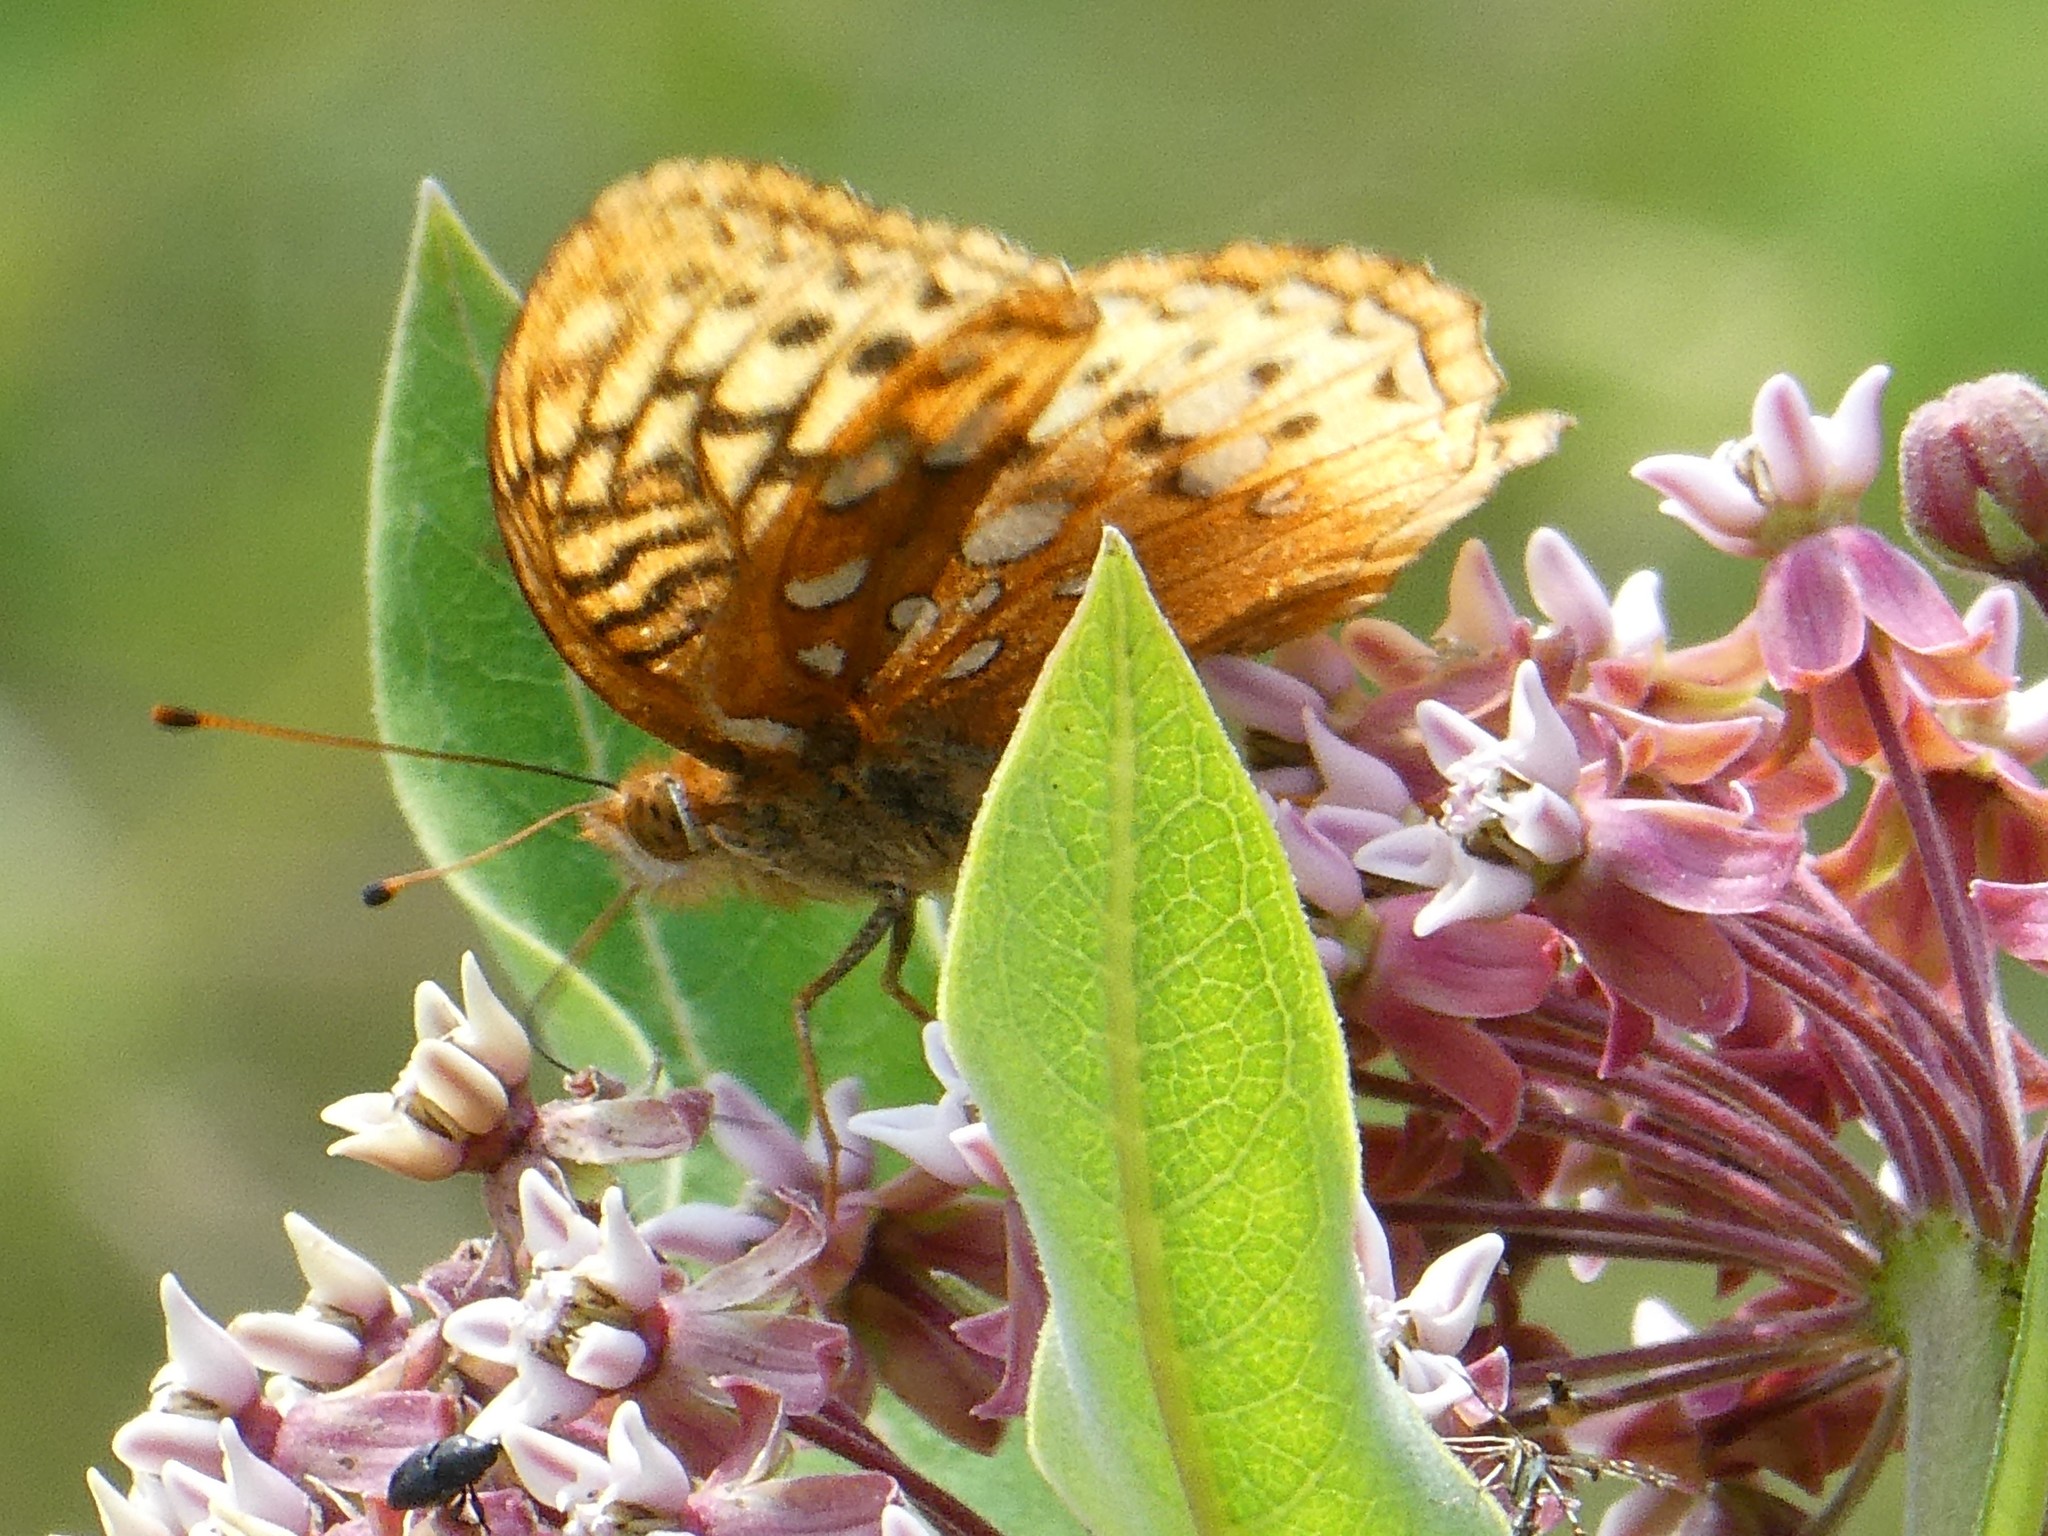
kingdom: Animalia
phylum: Arthropoda
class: Insecta
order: Lepidoptera
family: Nymphalidae
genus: Speyeria
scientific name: Speyeria cybele
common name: Great spangled fritillary
